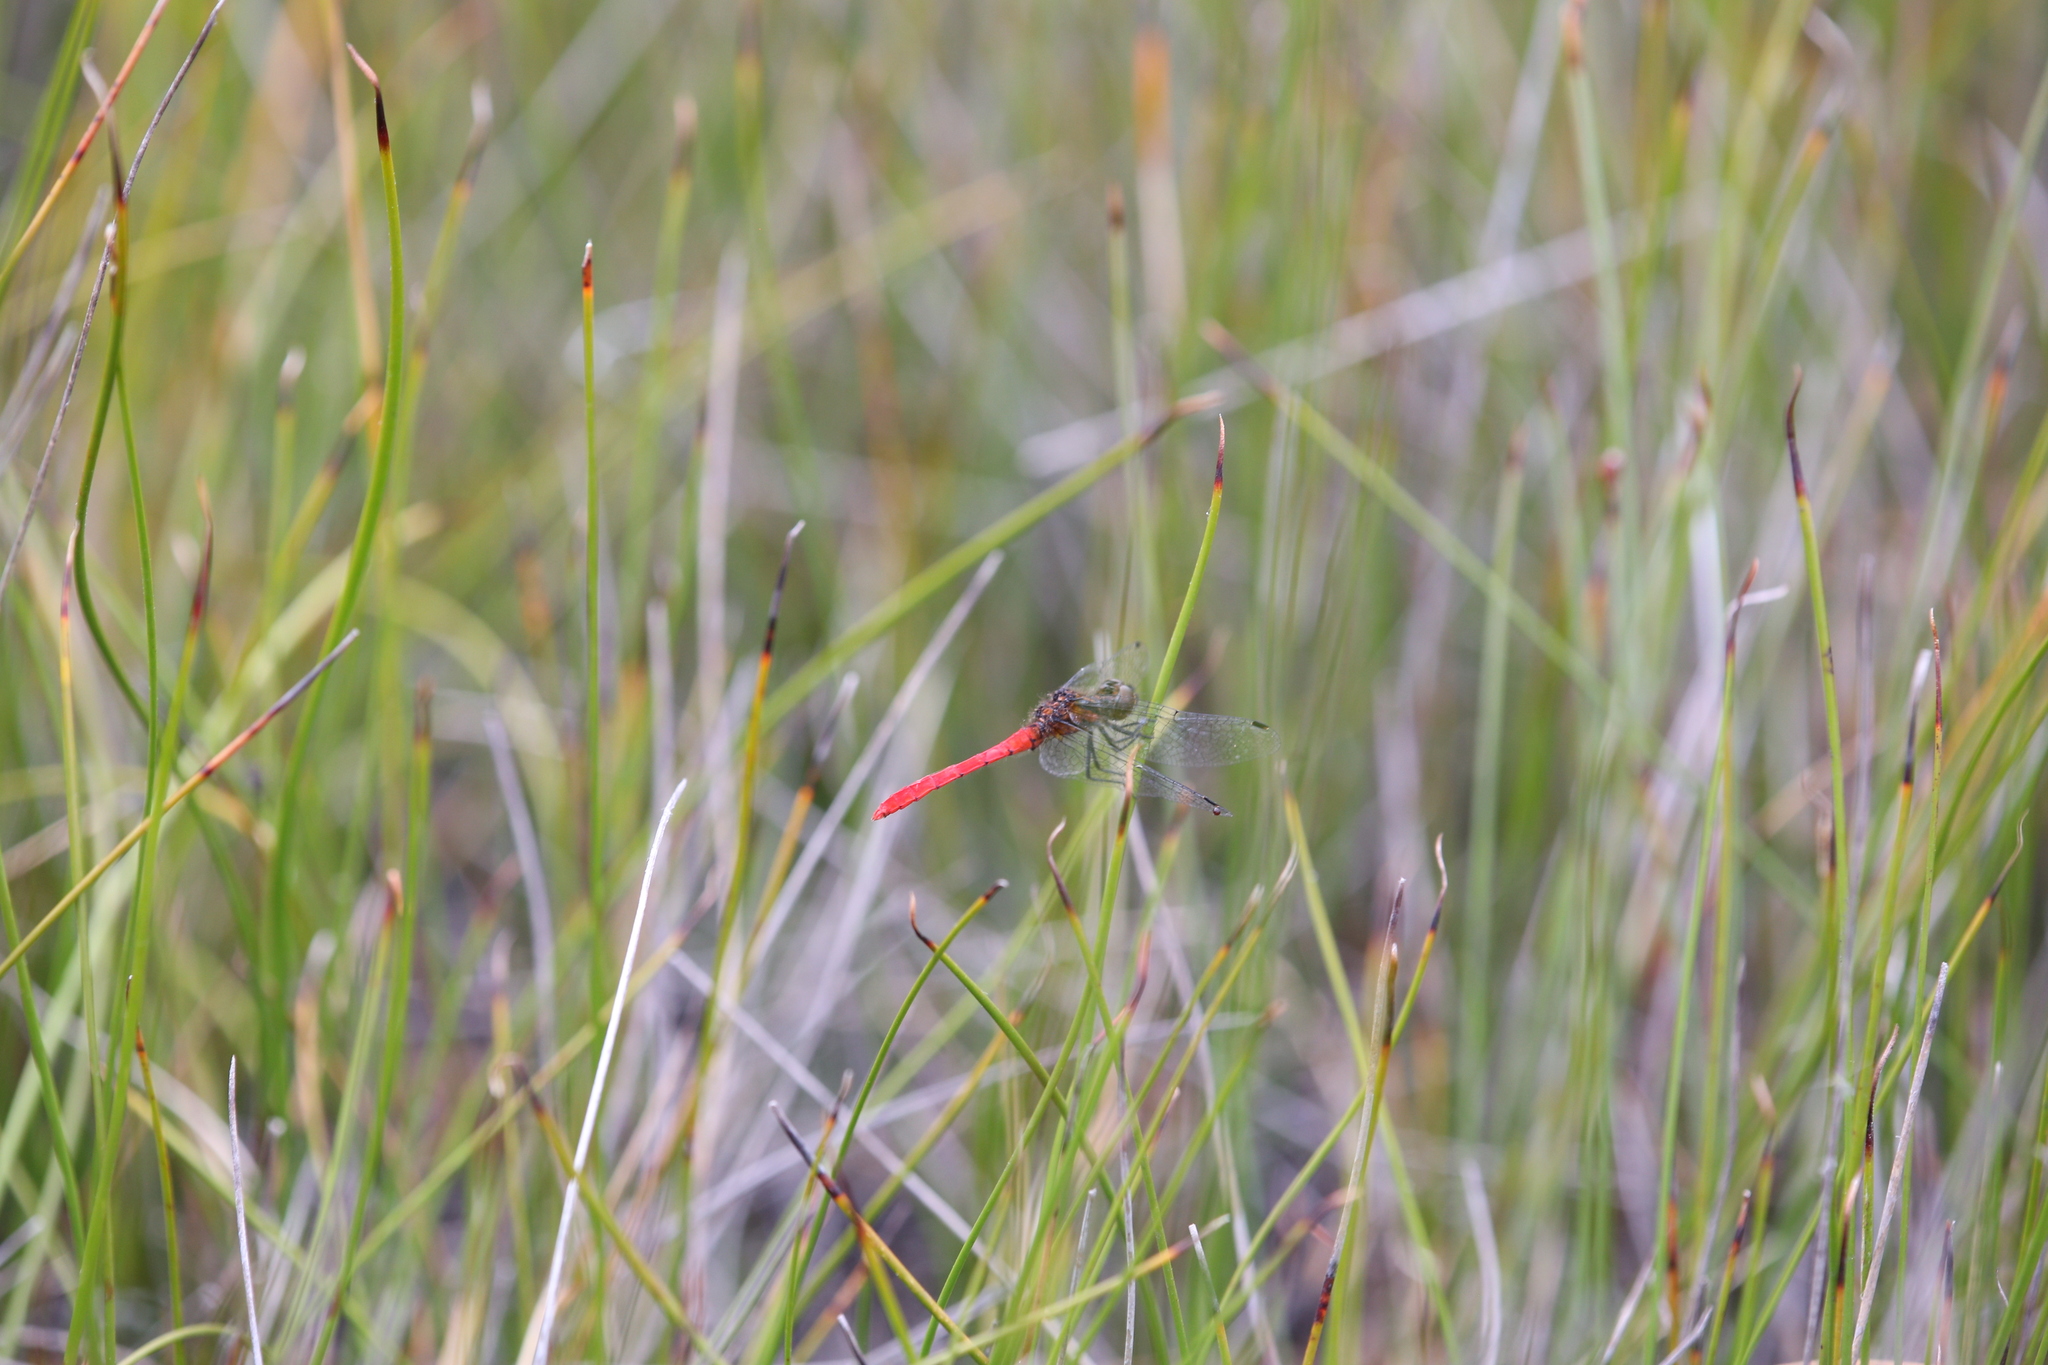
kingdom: Animalia
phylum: Arthropoda
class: Insecta
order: Odonata
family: Libellulidae
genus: Nannophya
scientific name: Nannophya occidentalis
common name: Western pygmyfly
